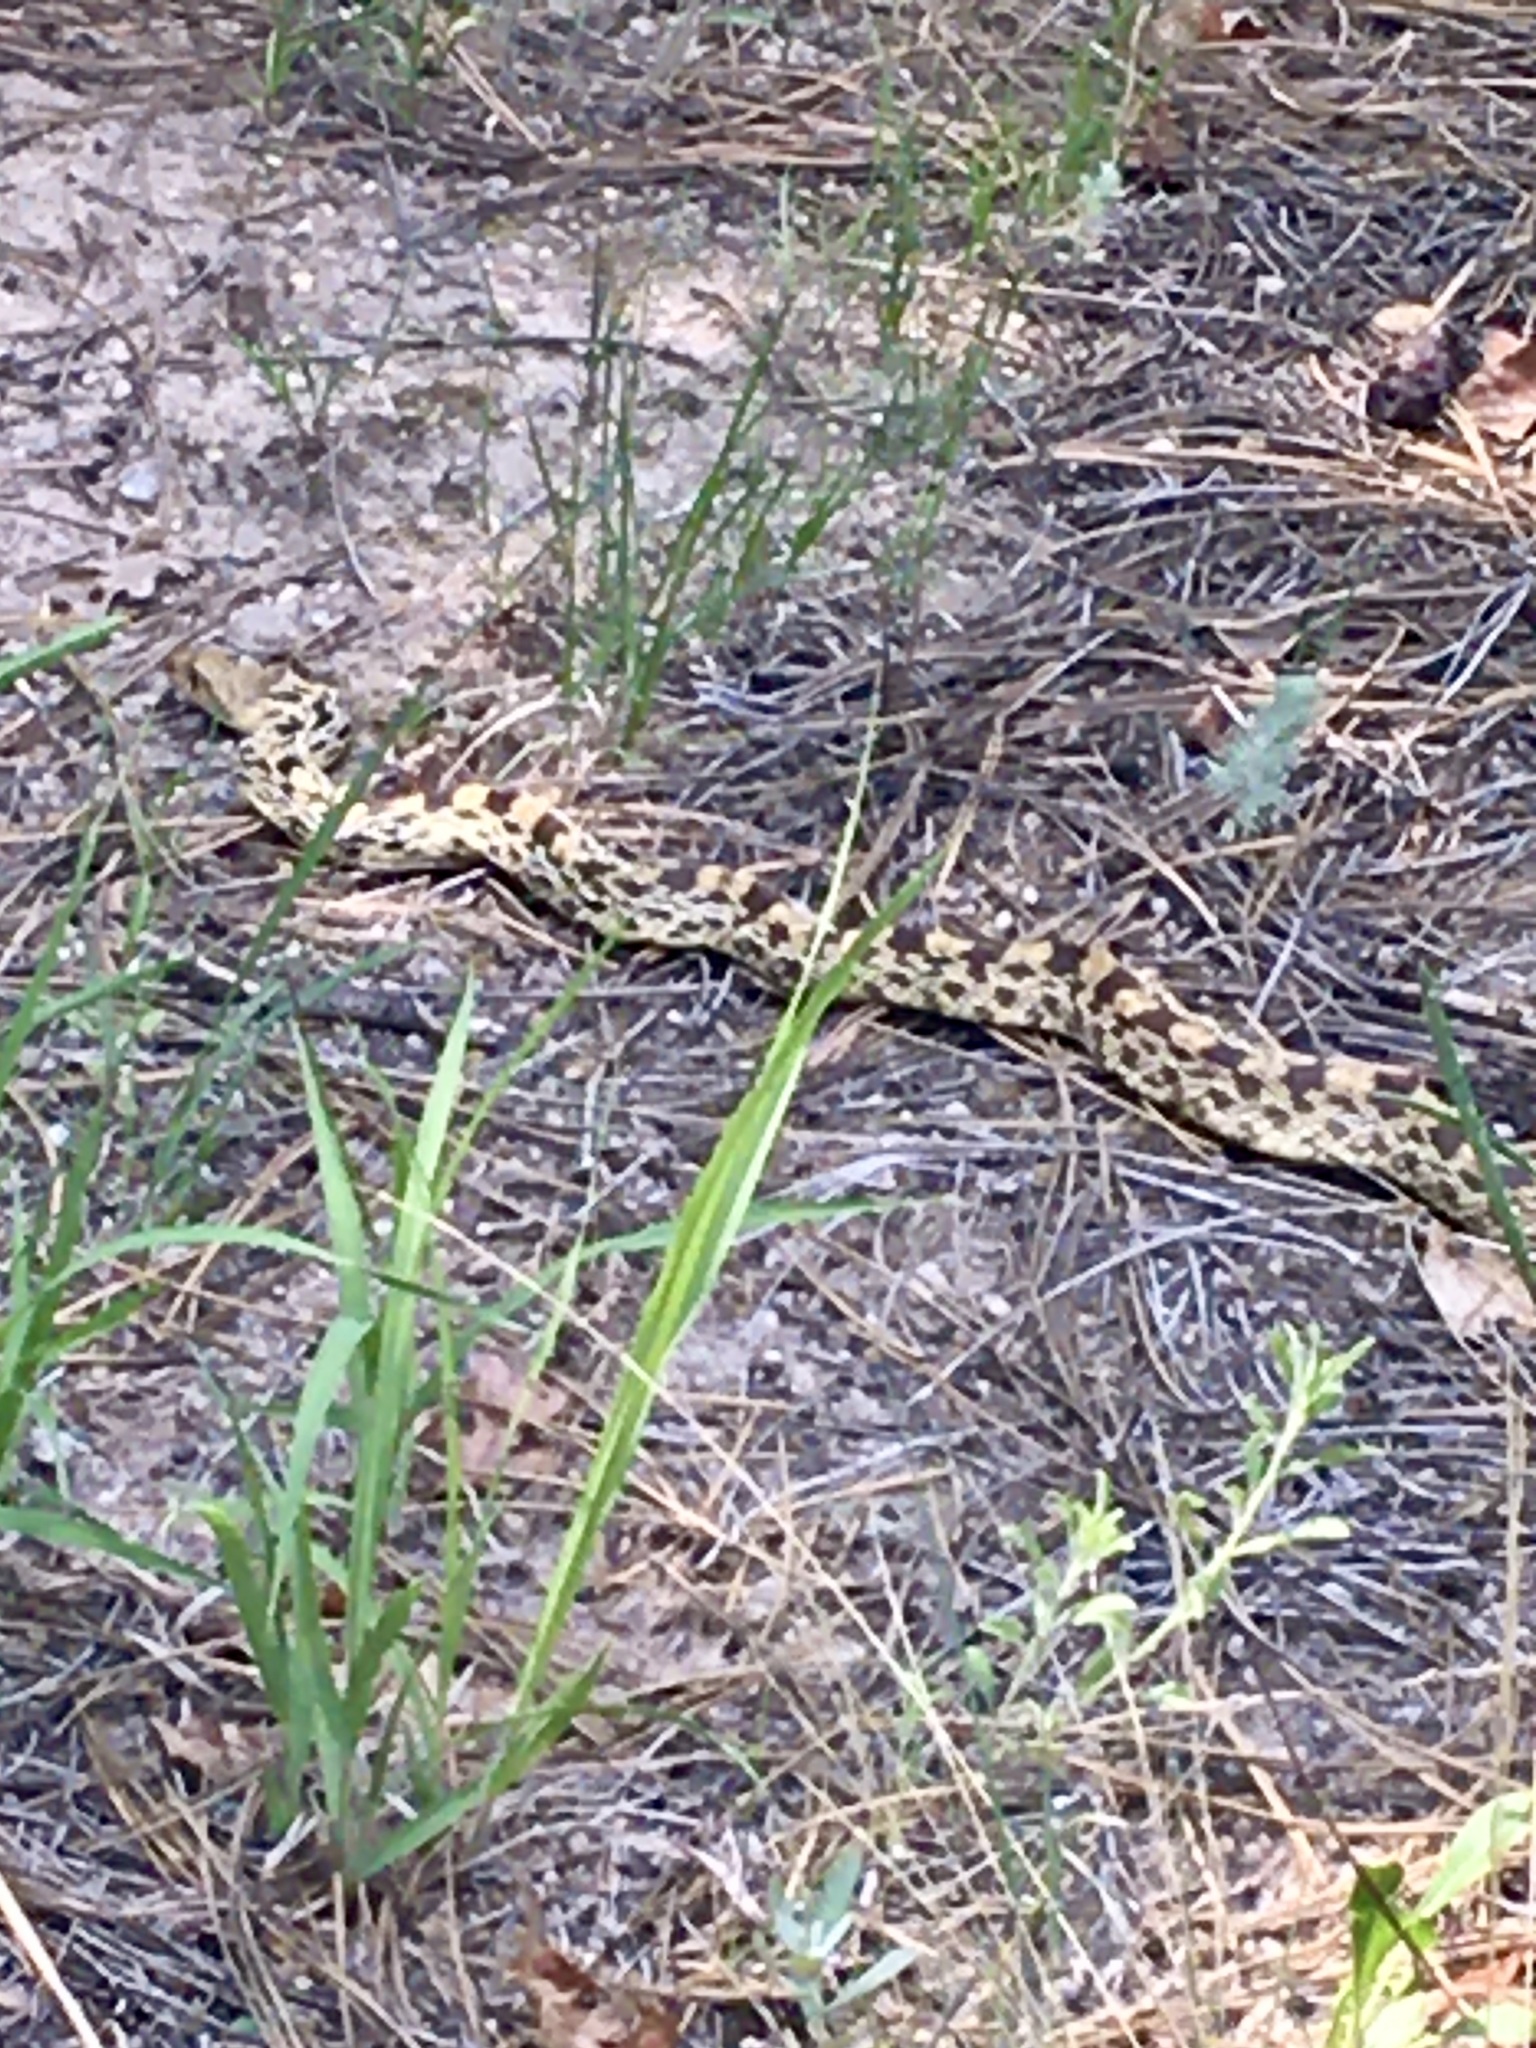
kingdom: Animalia
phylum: Chordata
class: Squamata
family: Colubridae
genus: Pituophis
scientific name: Pituophis catenifer
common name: Gopher snake
